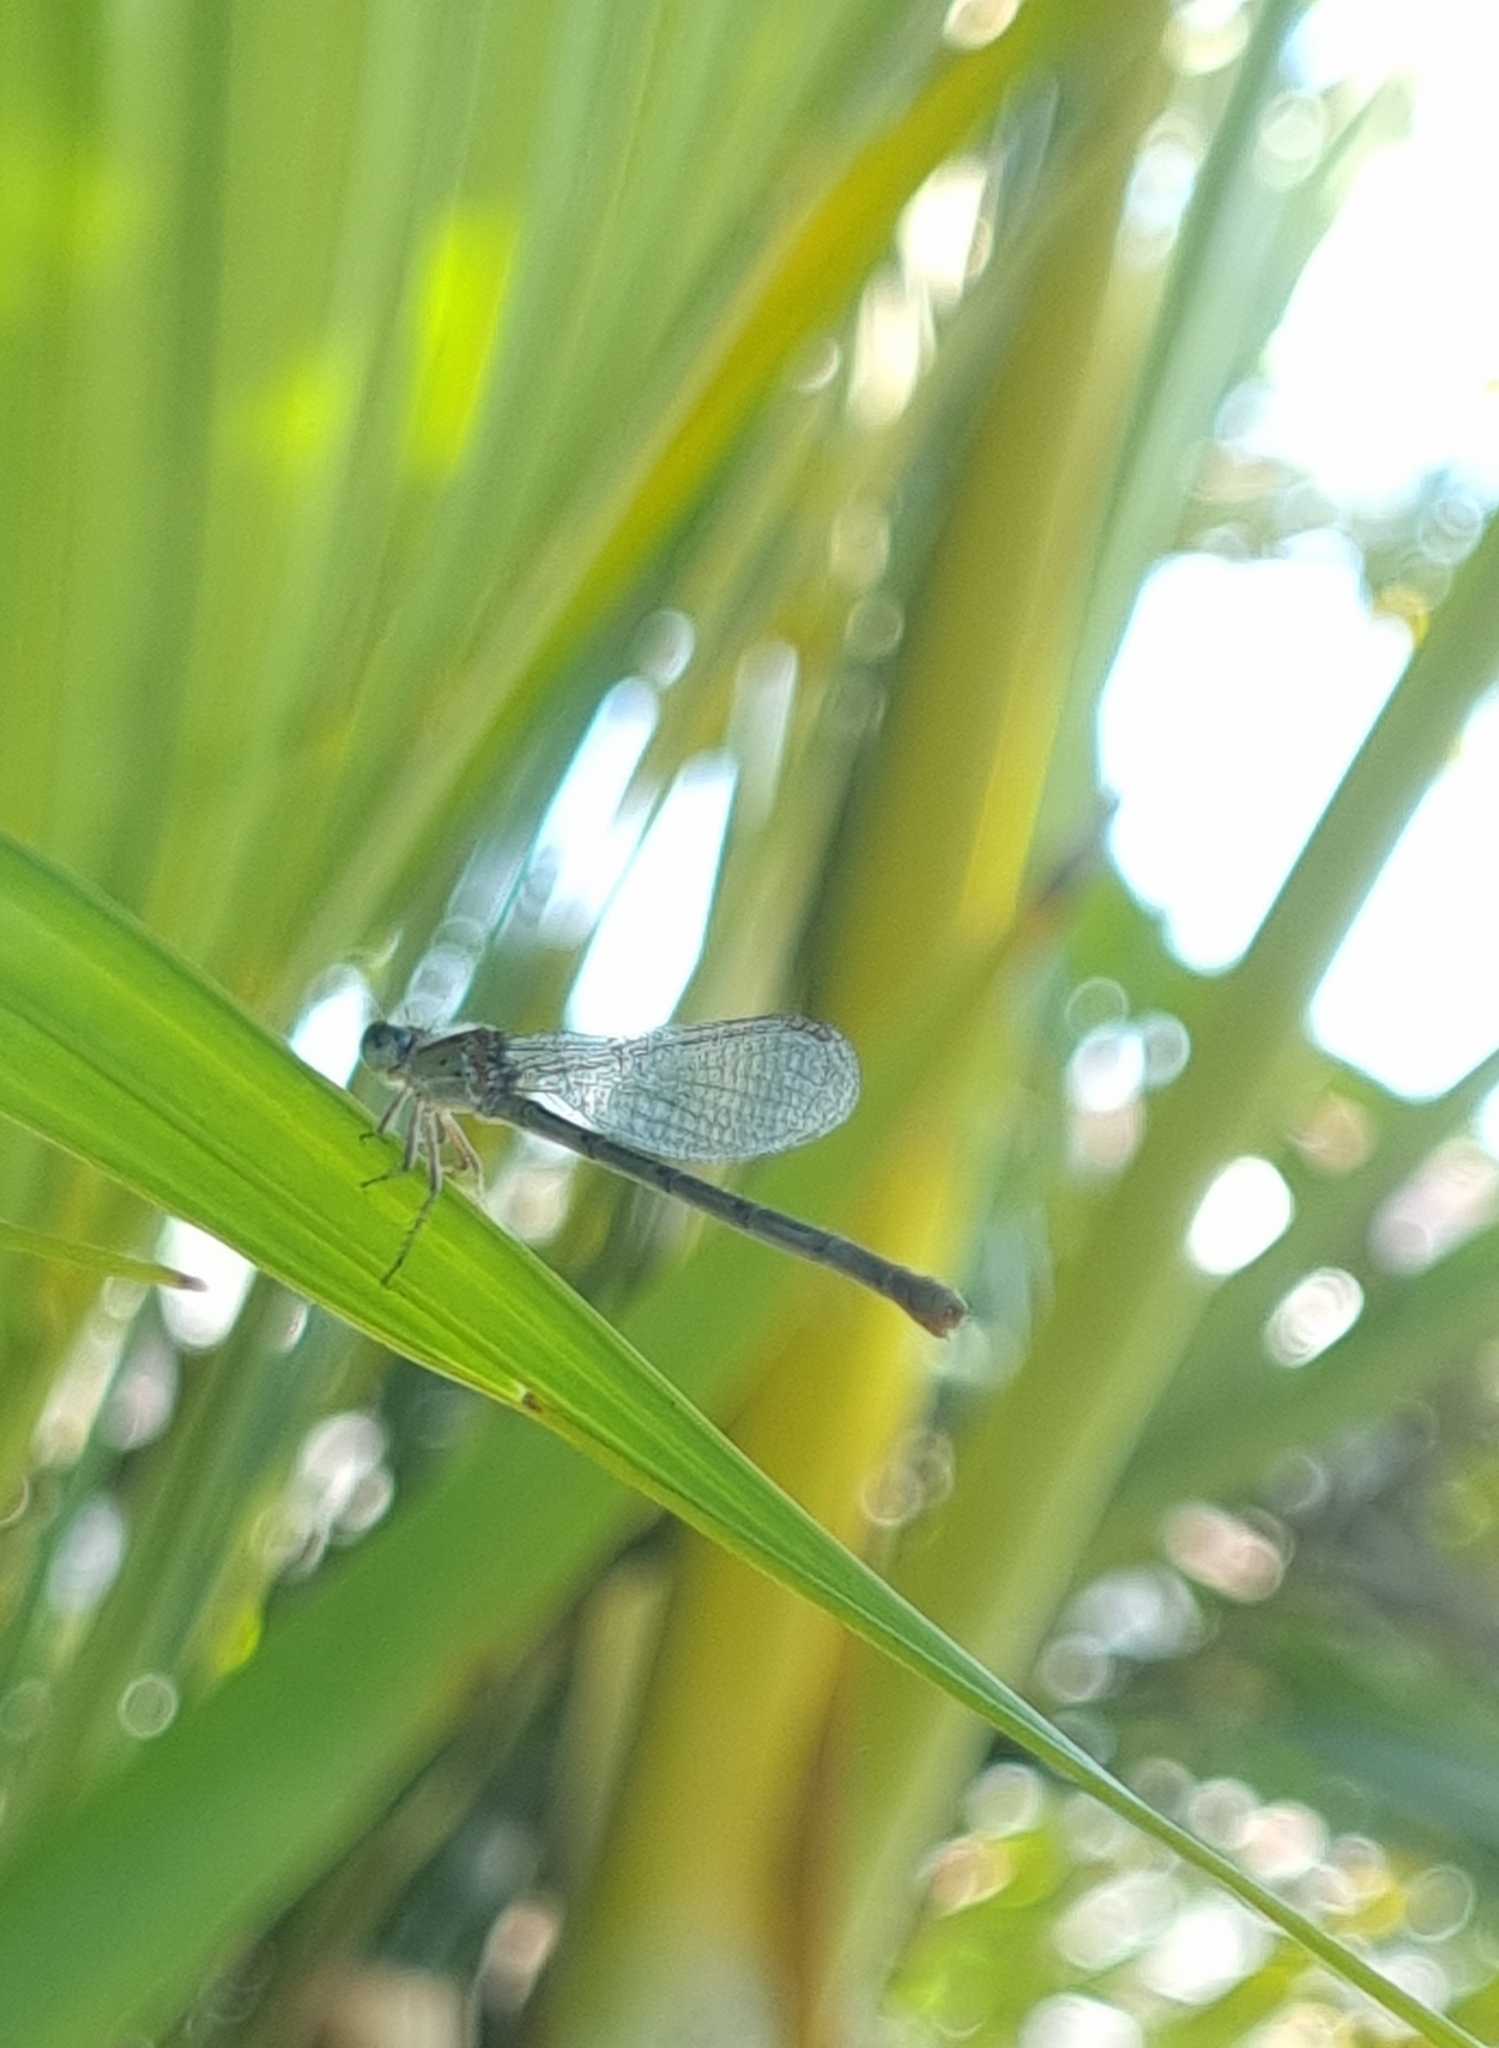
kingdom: Animalia
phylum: Arthropoda
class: Insecta
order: Odonata
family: Coenagrionidae
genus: Pseudagrion
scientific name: Pseudagrion
